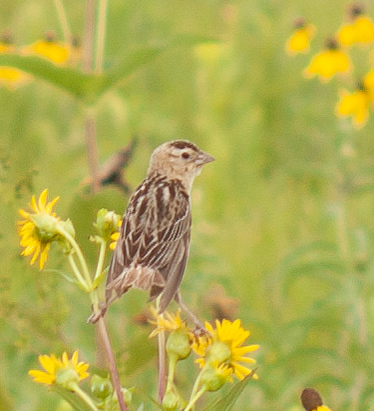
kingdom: Animalia
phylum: Chordata
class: Aves
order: Passeriformes
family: Icteridae
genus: Dolichonyx
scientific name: Dolichonyx oryzivorus
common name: Bobolink
